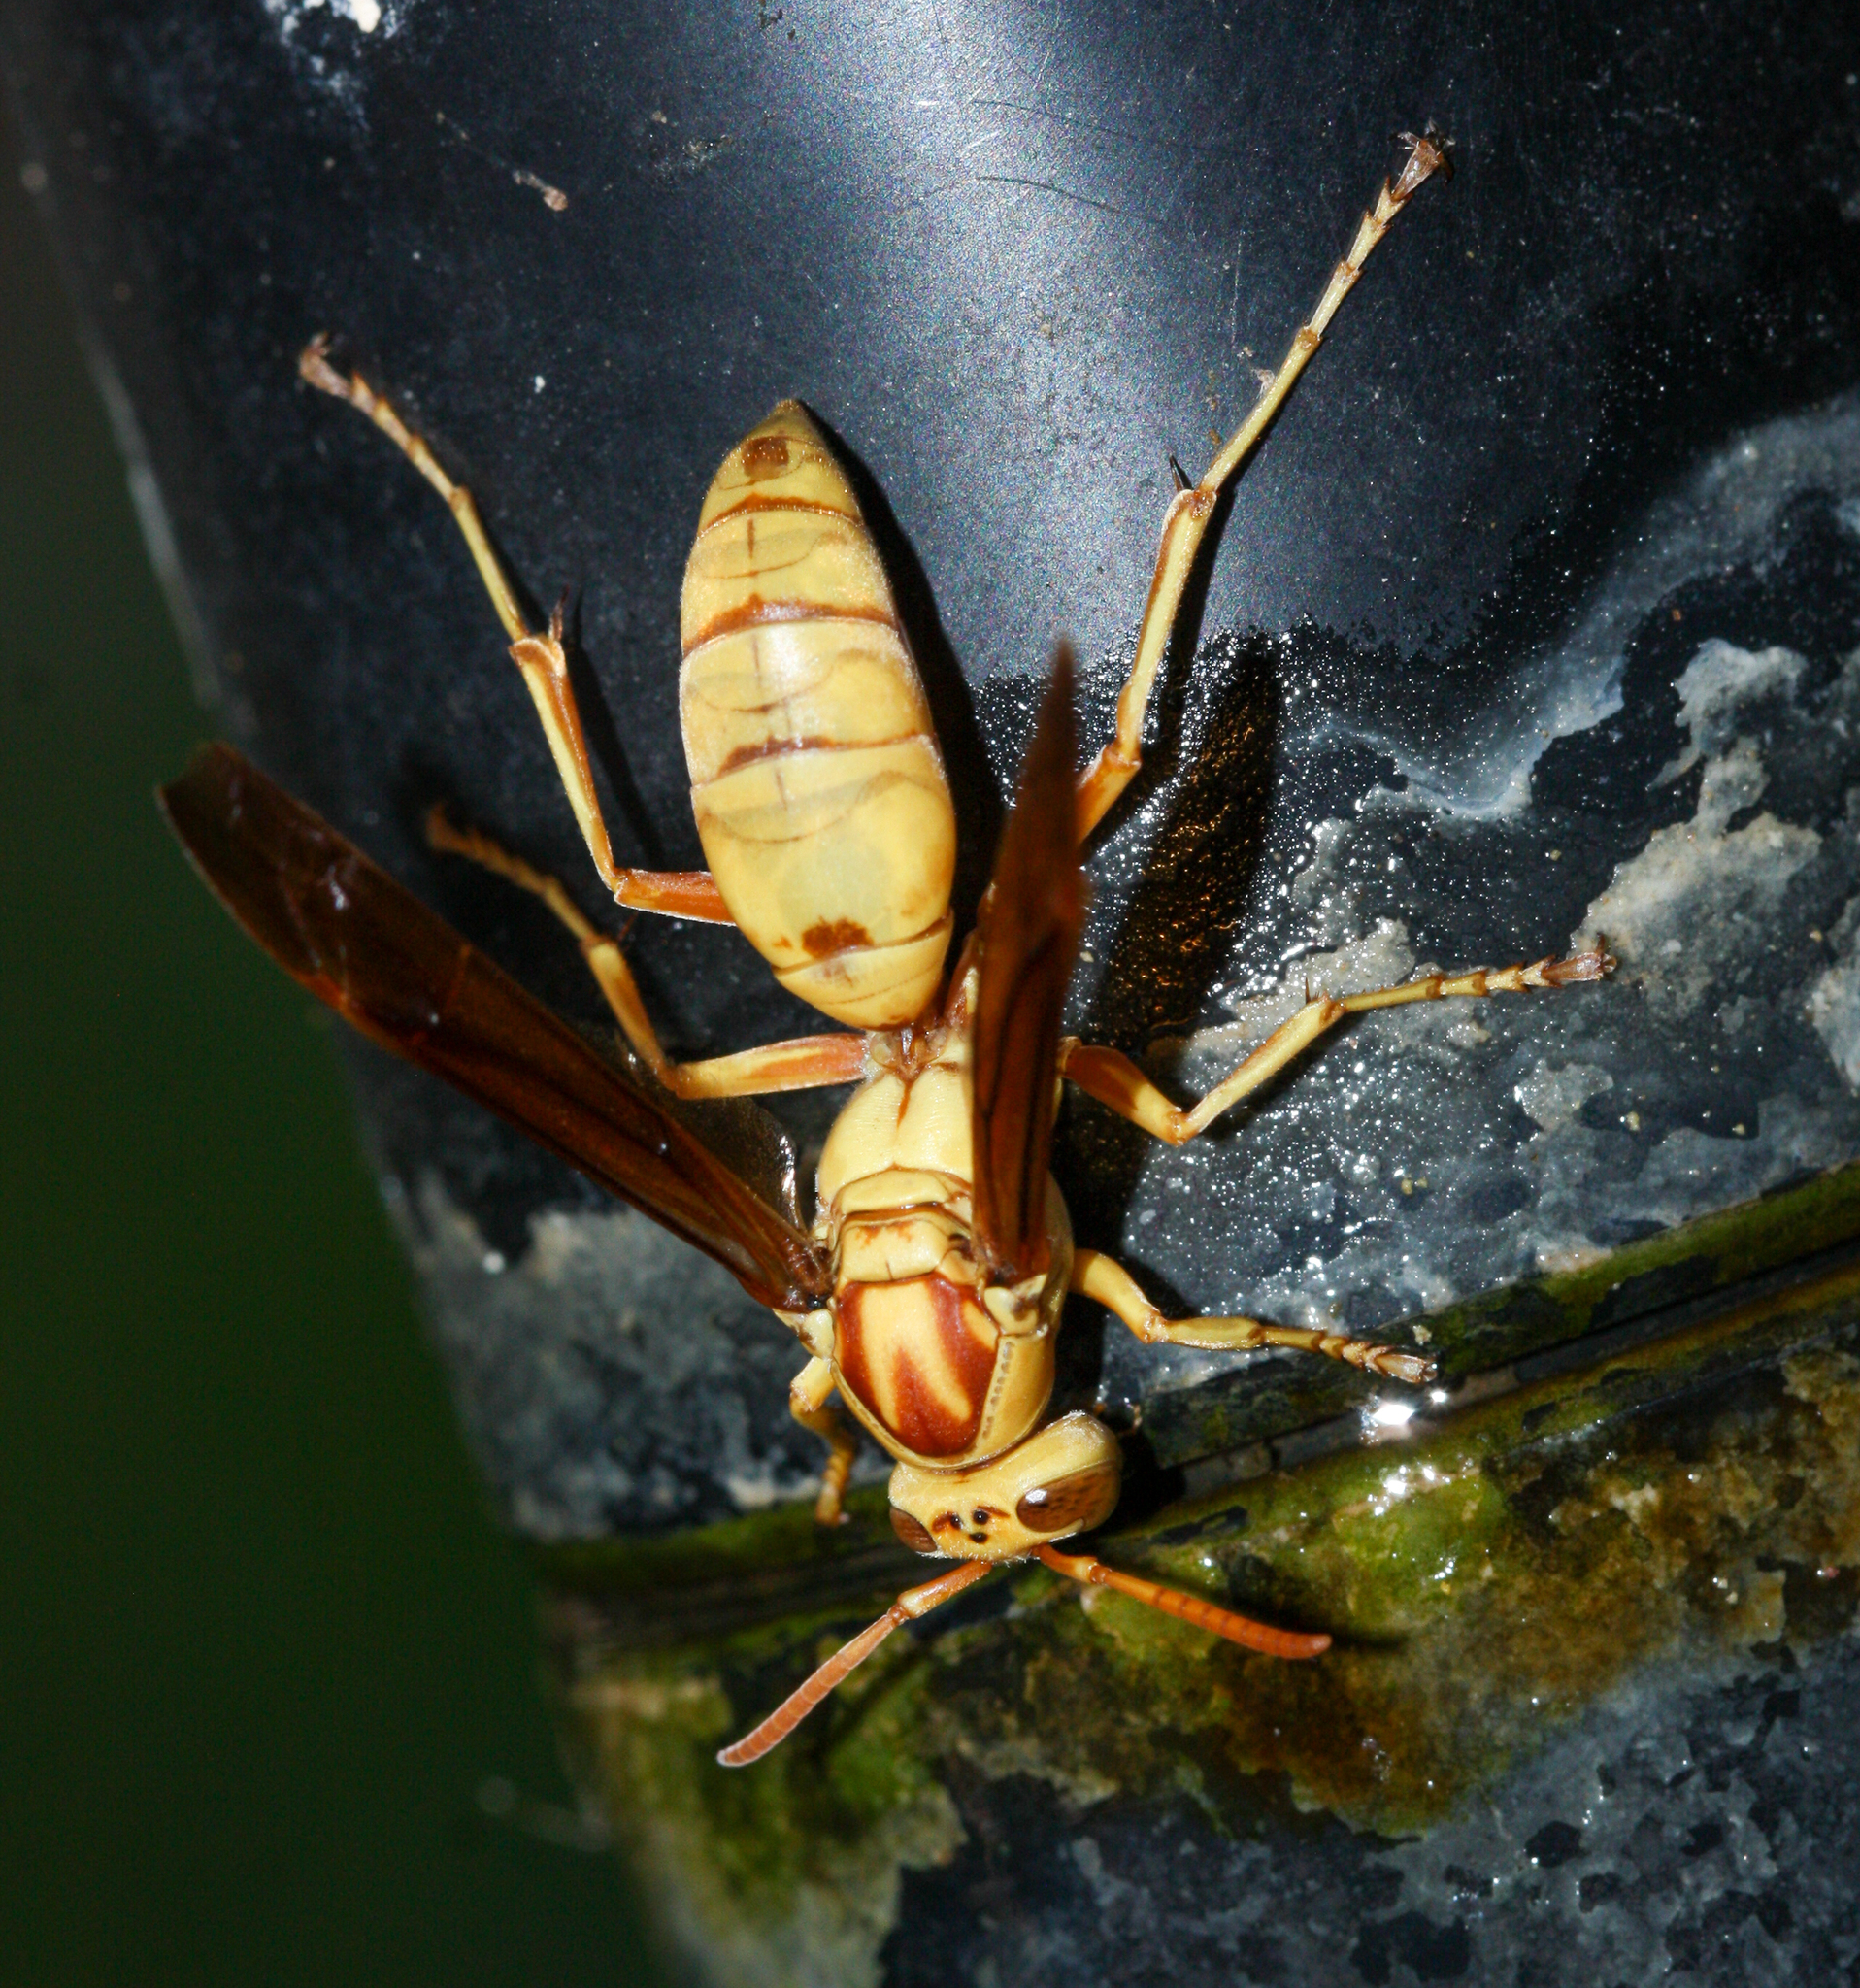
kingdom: Animalia
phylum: Arthropoda
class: Insecta
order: Hymenoptera
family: Eumenidae
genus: Polistes
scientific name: Polistes aurifer
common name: Paper wasp
